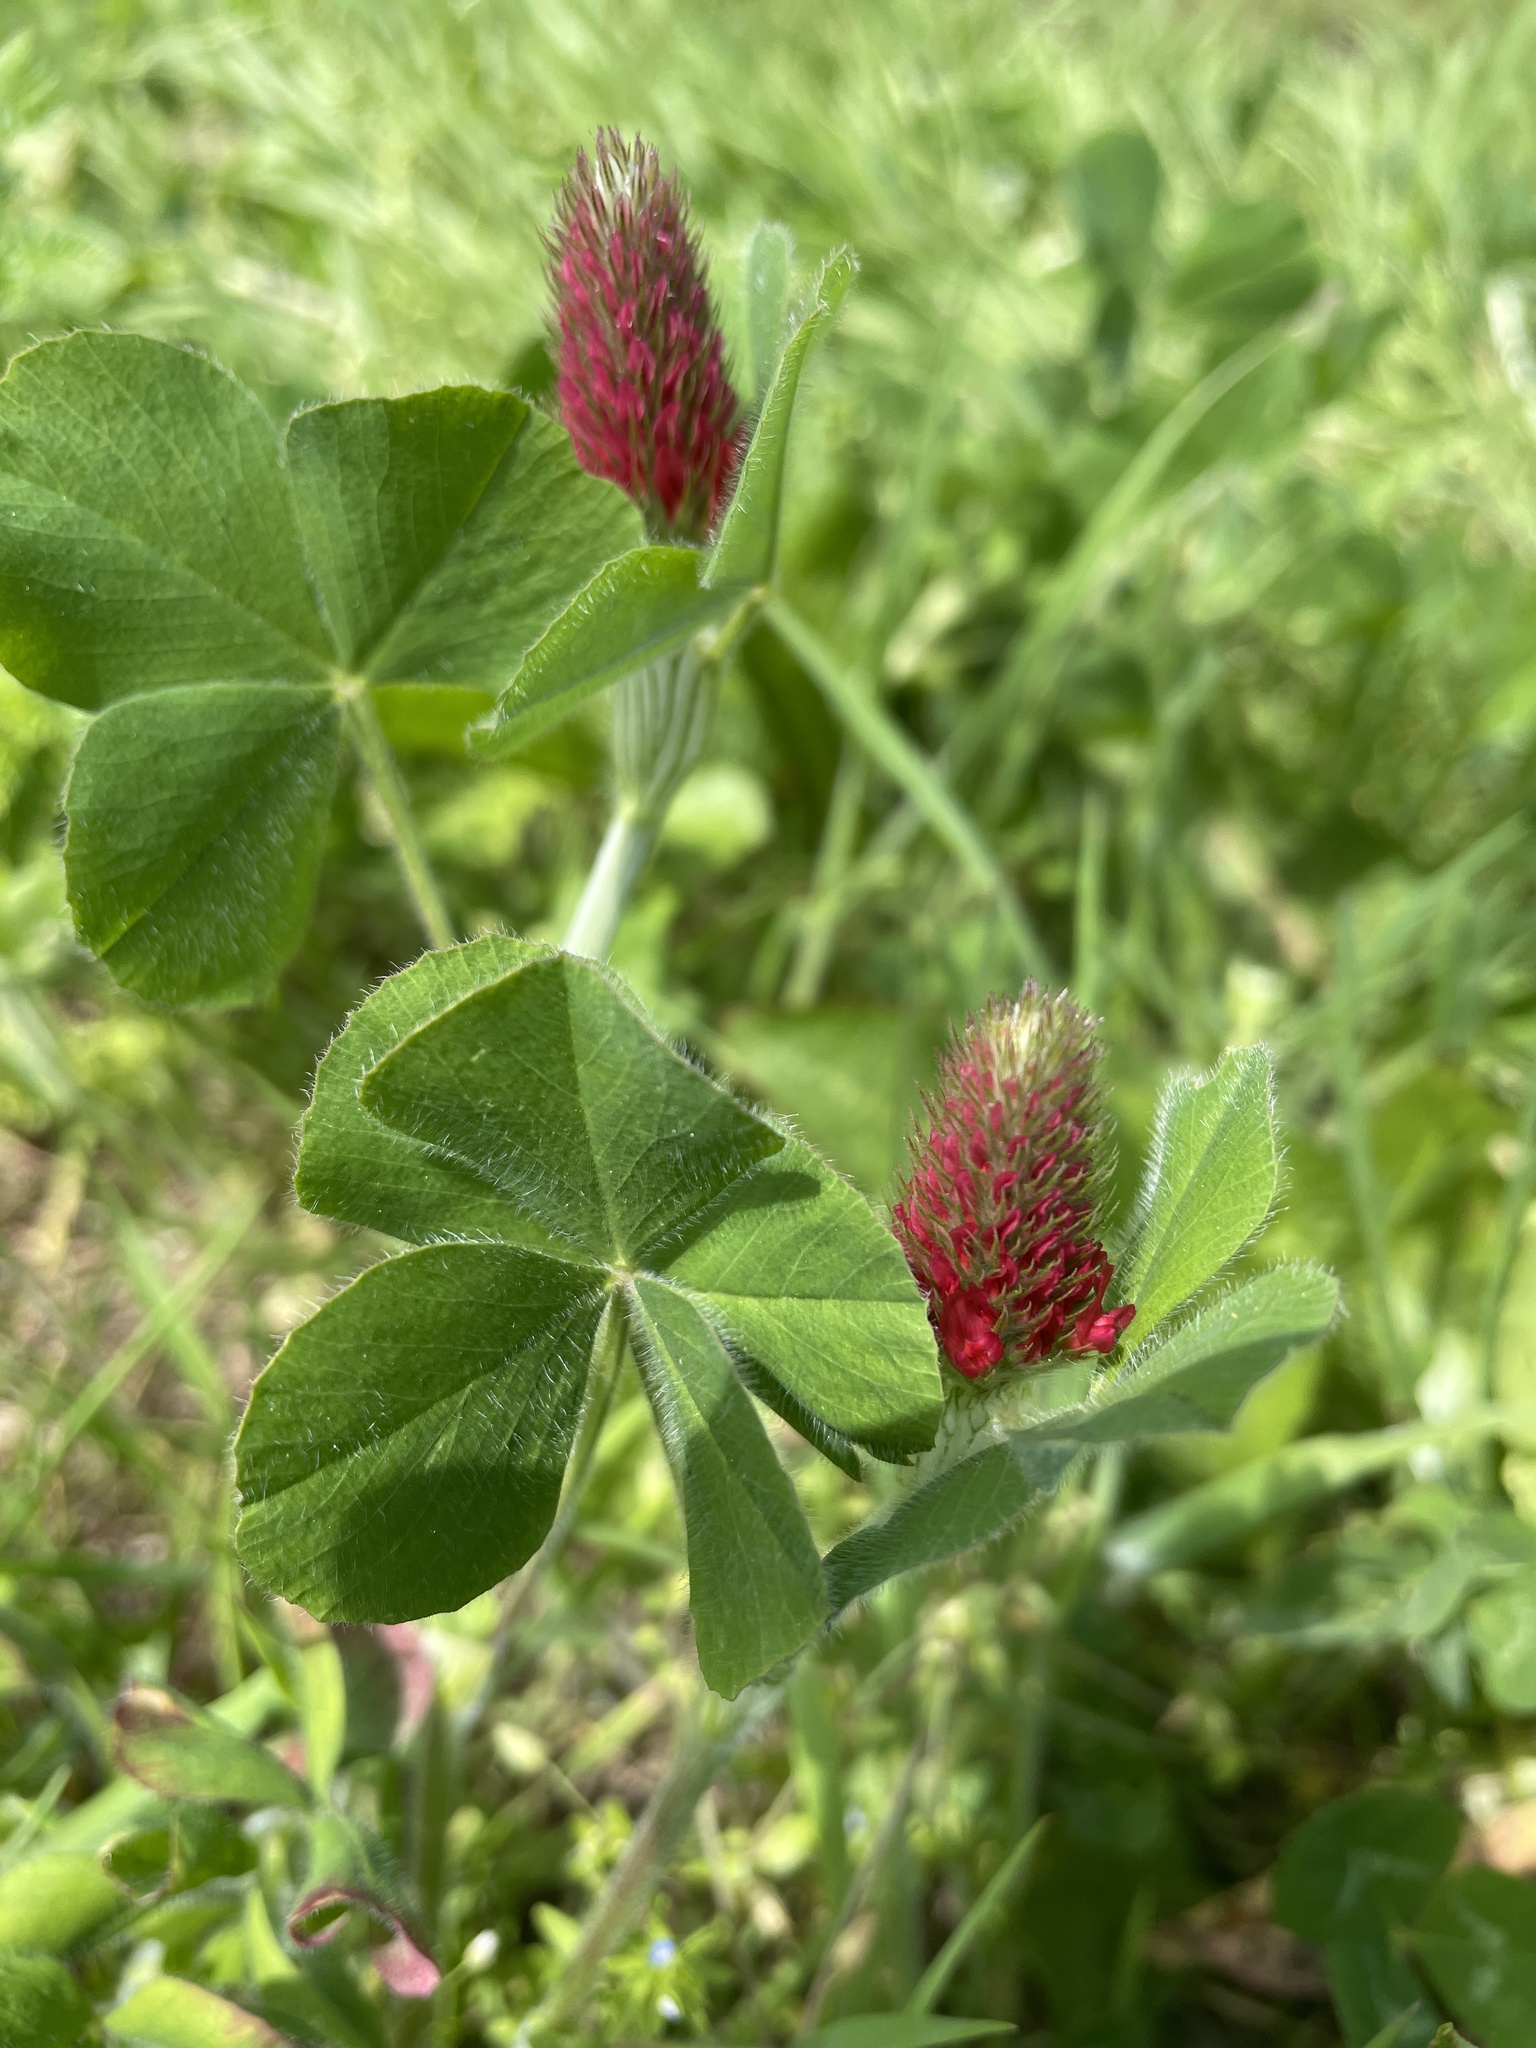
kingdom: Plantae
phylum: Tracheophyta
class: Magnoliopsida
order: Fabales
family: Fabaceae
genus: Trifolium
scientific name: Trifolium incarnatum
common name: Crimson clover
